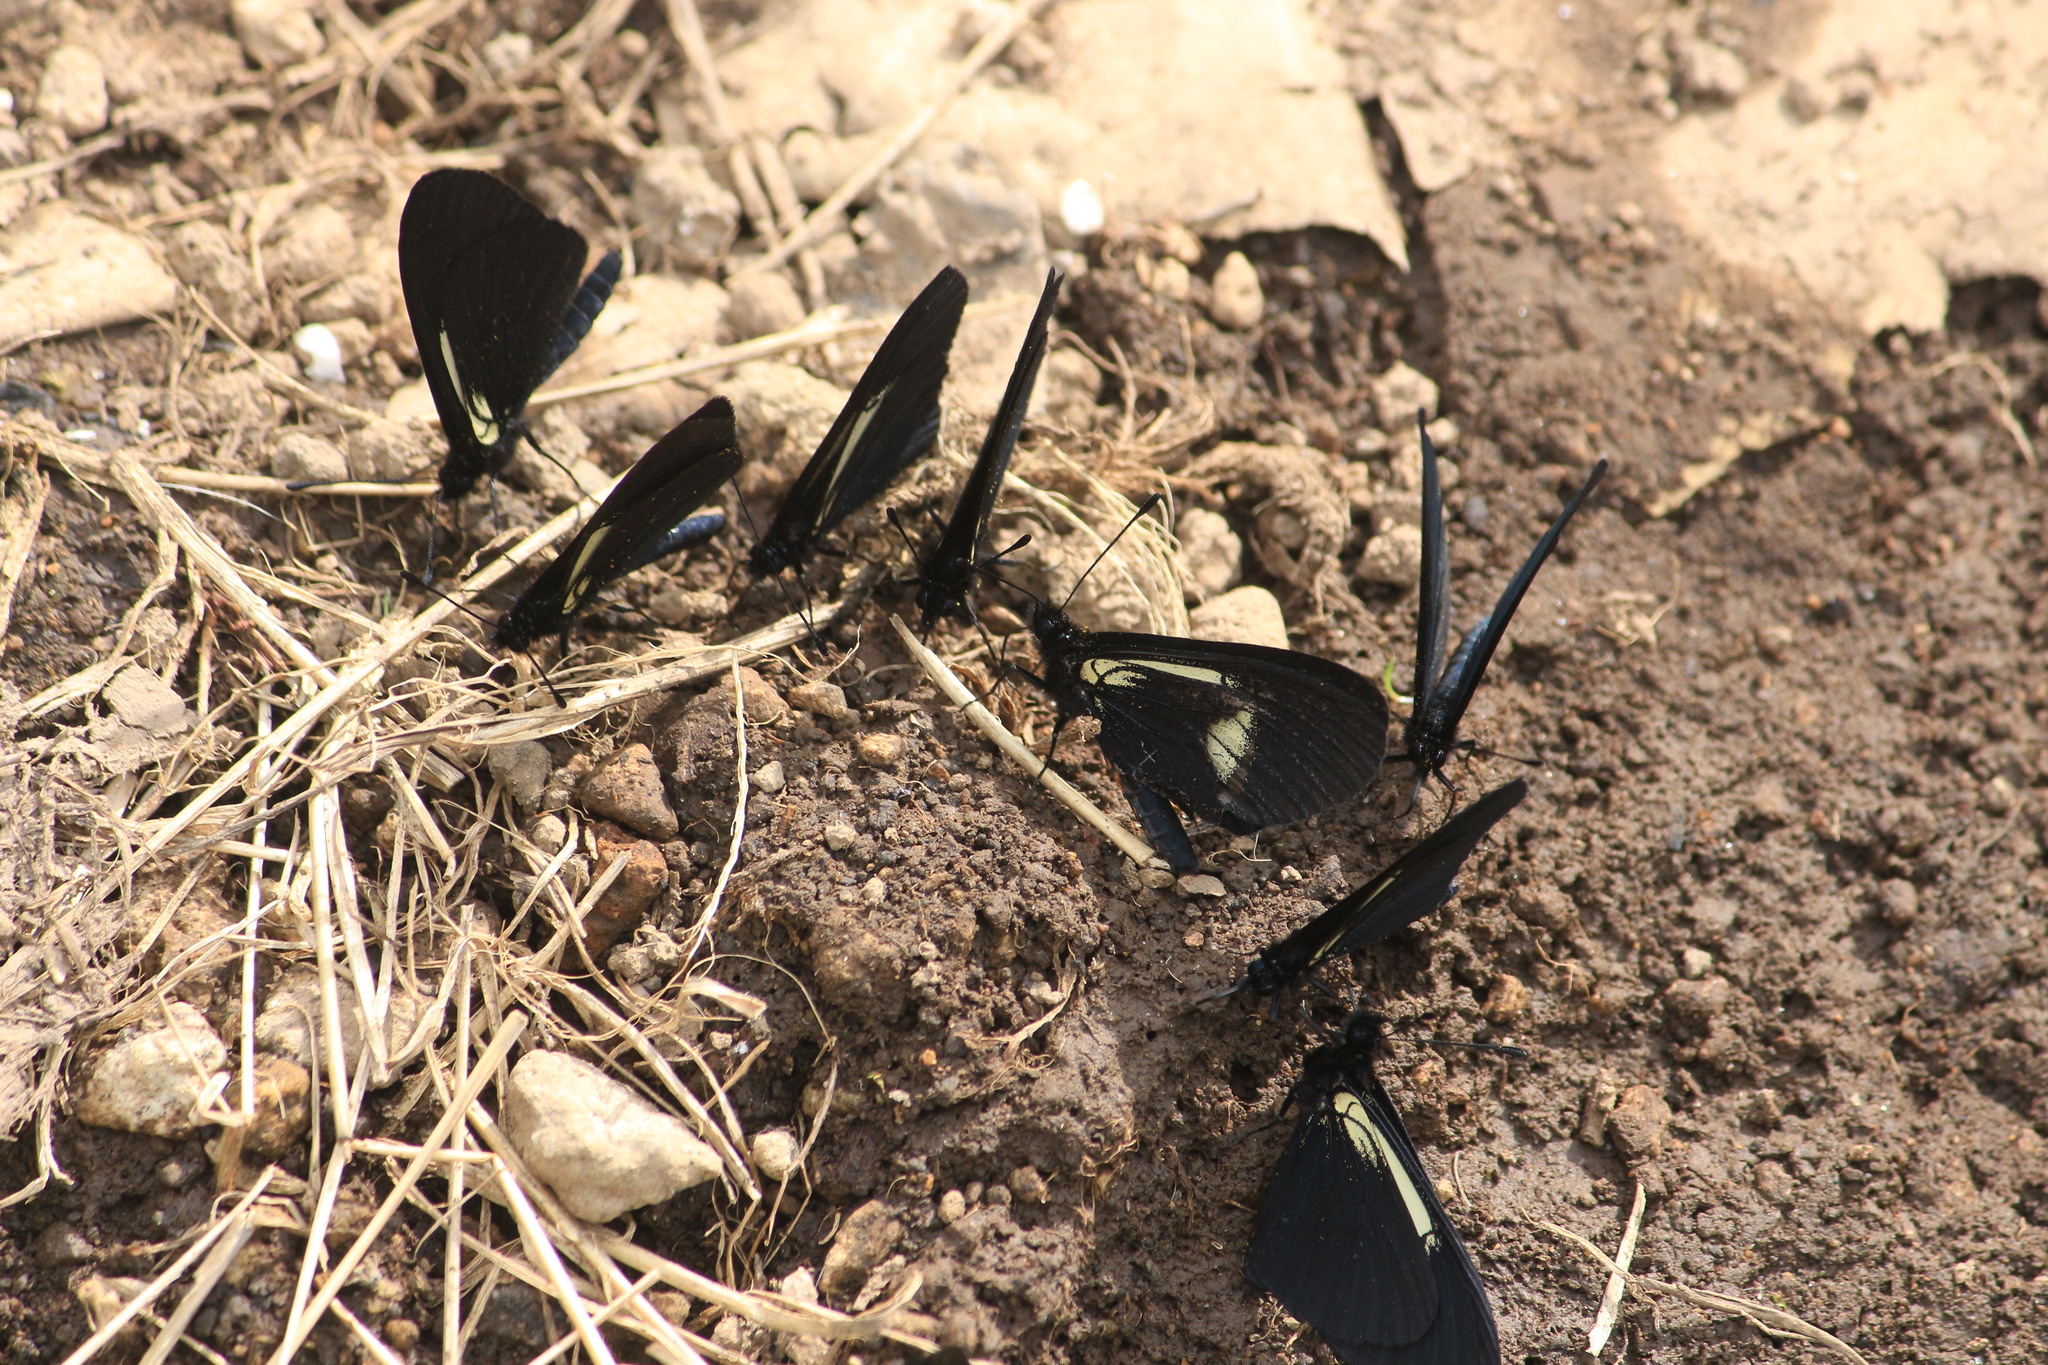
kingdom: Animalia
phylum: Arthropoda
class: Insecta
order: Lepidoptera
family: Nymphalidae
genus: Acraea
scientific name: Acraea Altinote ozomene
